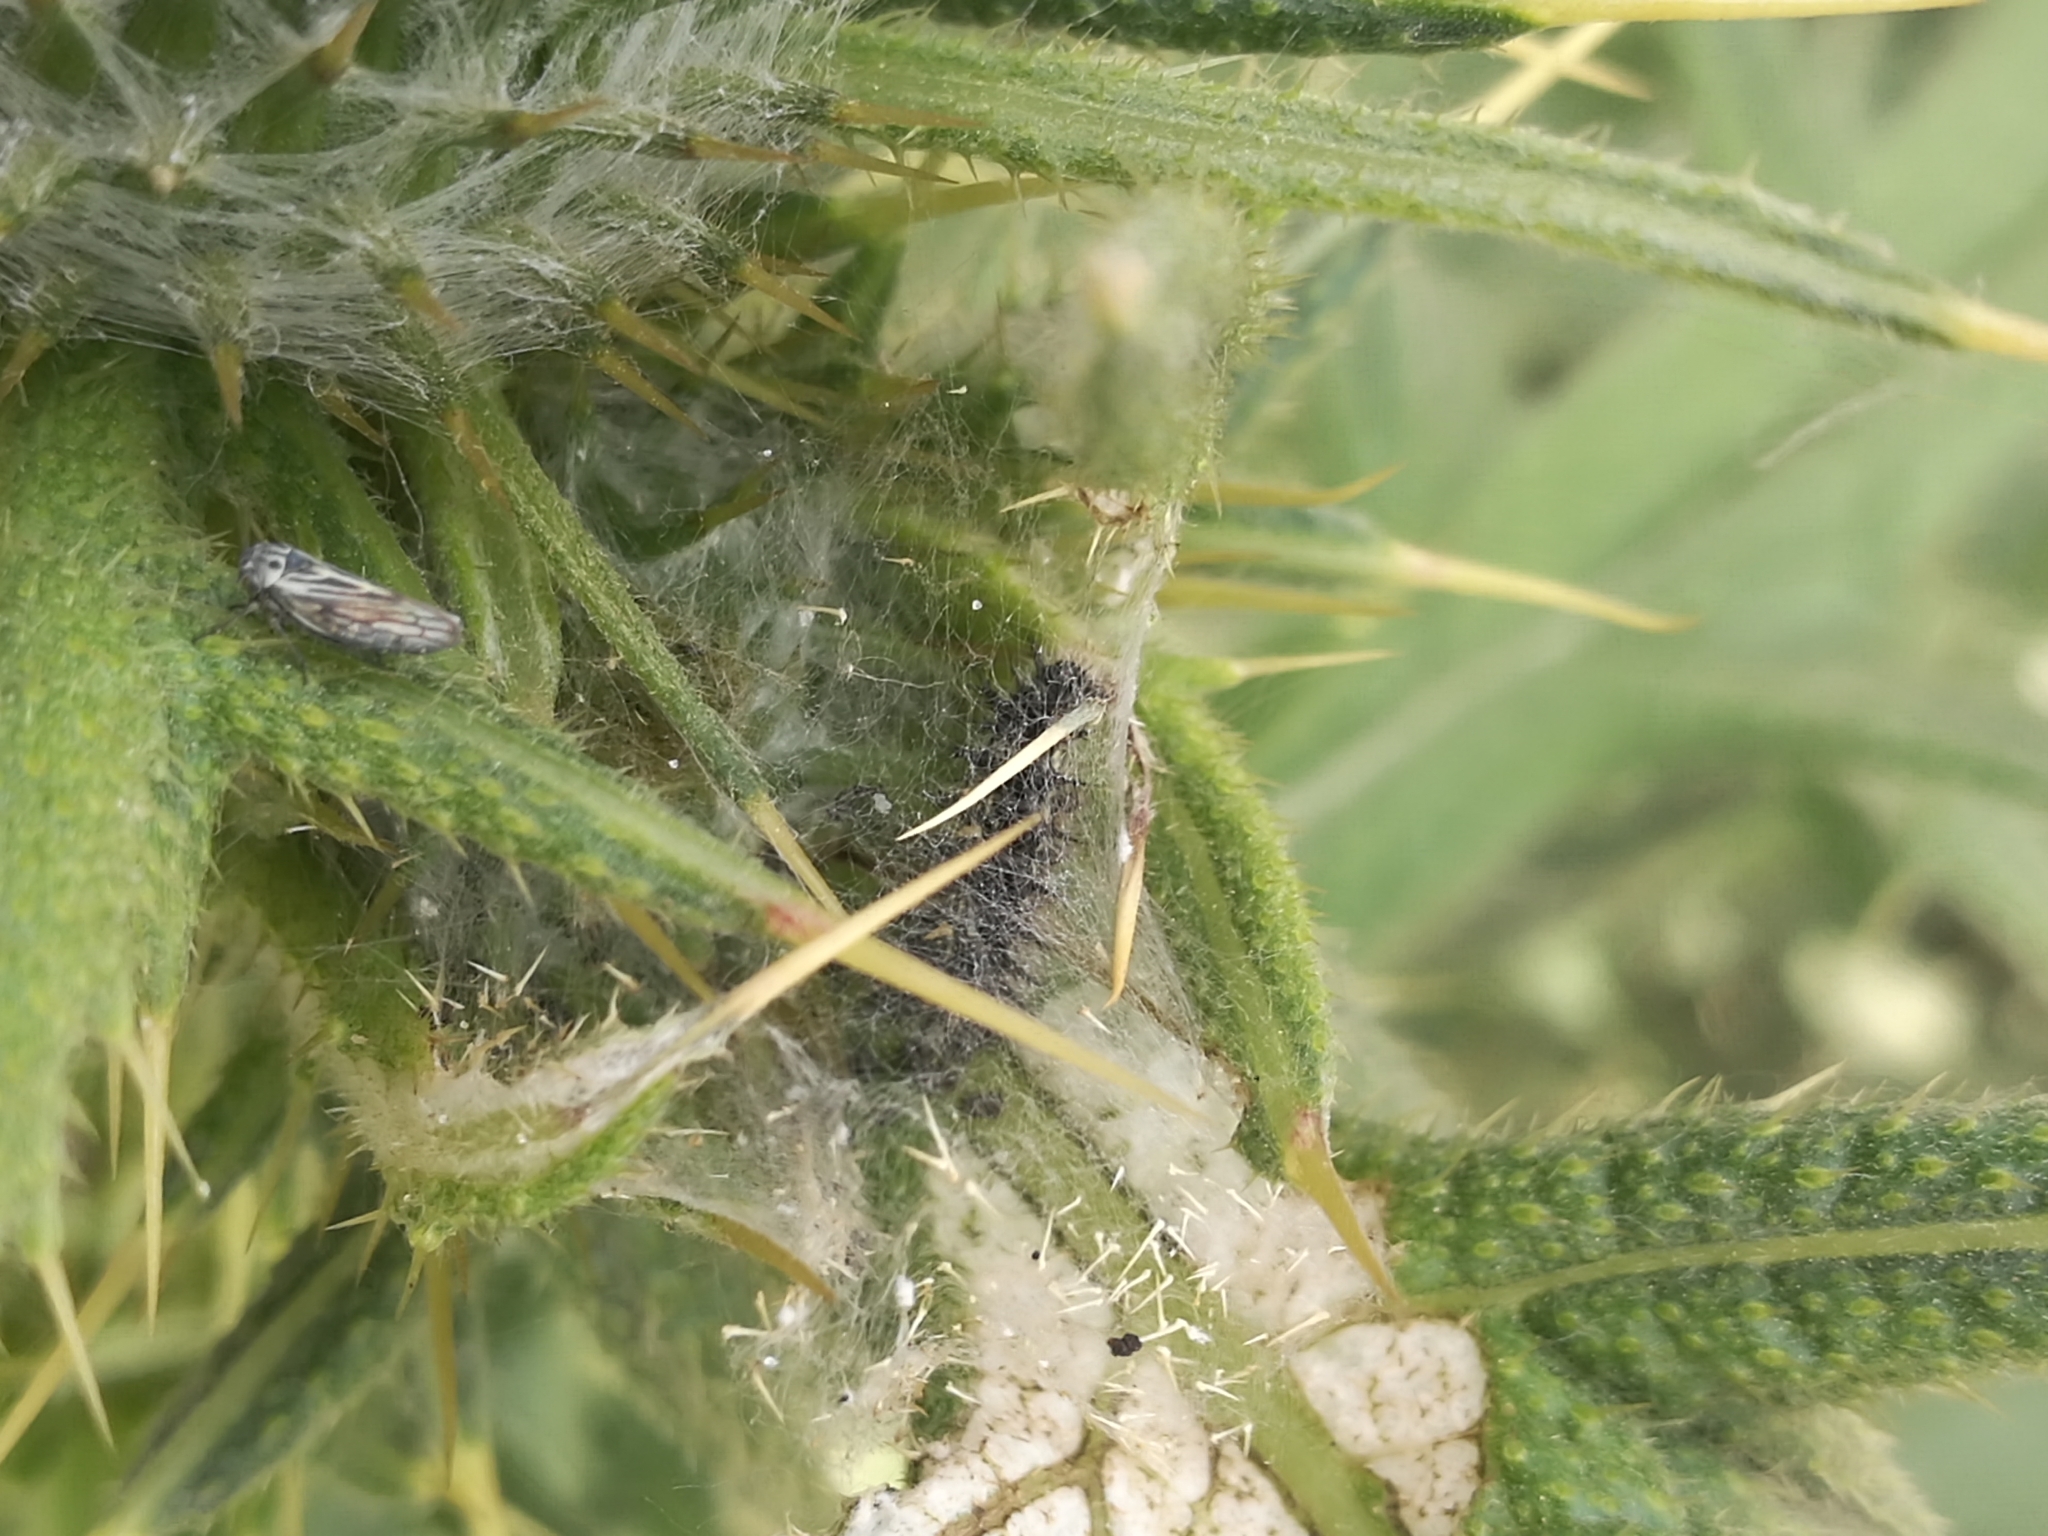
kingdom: Animalia
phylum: Arthropoda
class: Insecta
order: Lepidoptera
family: Nymphalidae
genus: Vanessa
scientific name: Vanessa cardui
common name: Painted lady
